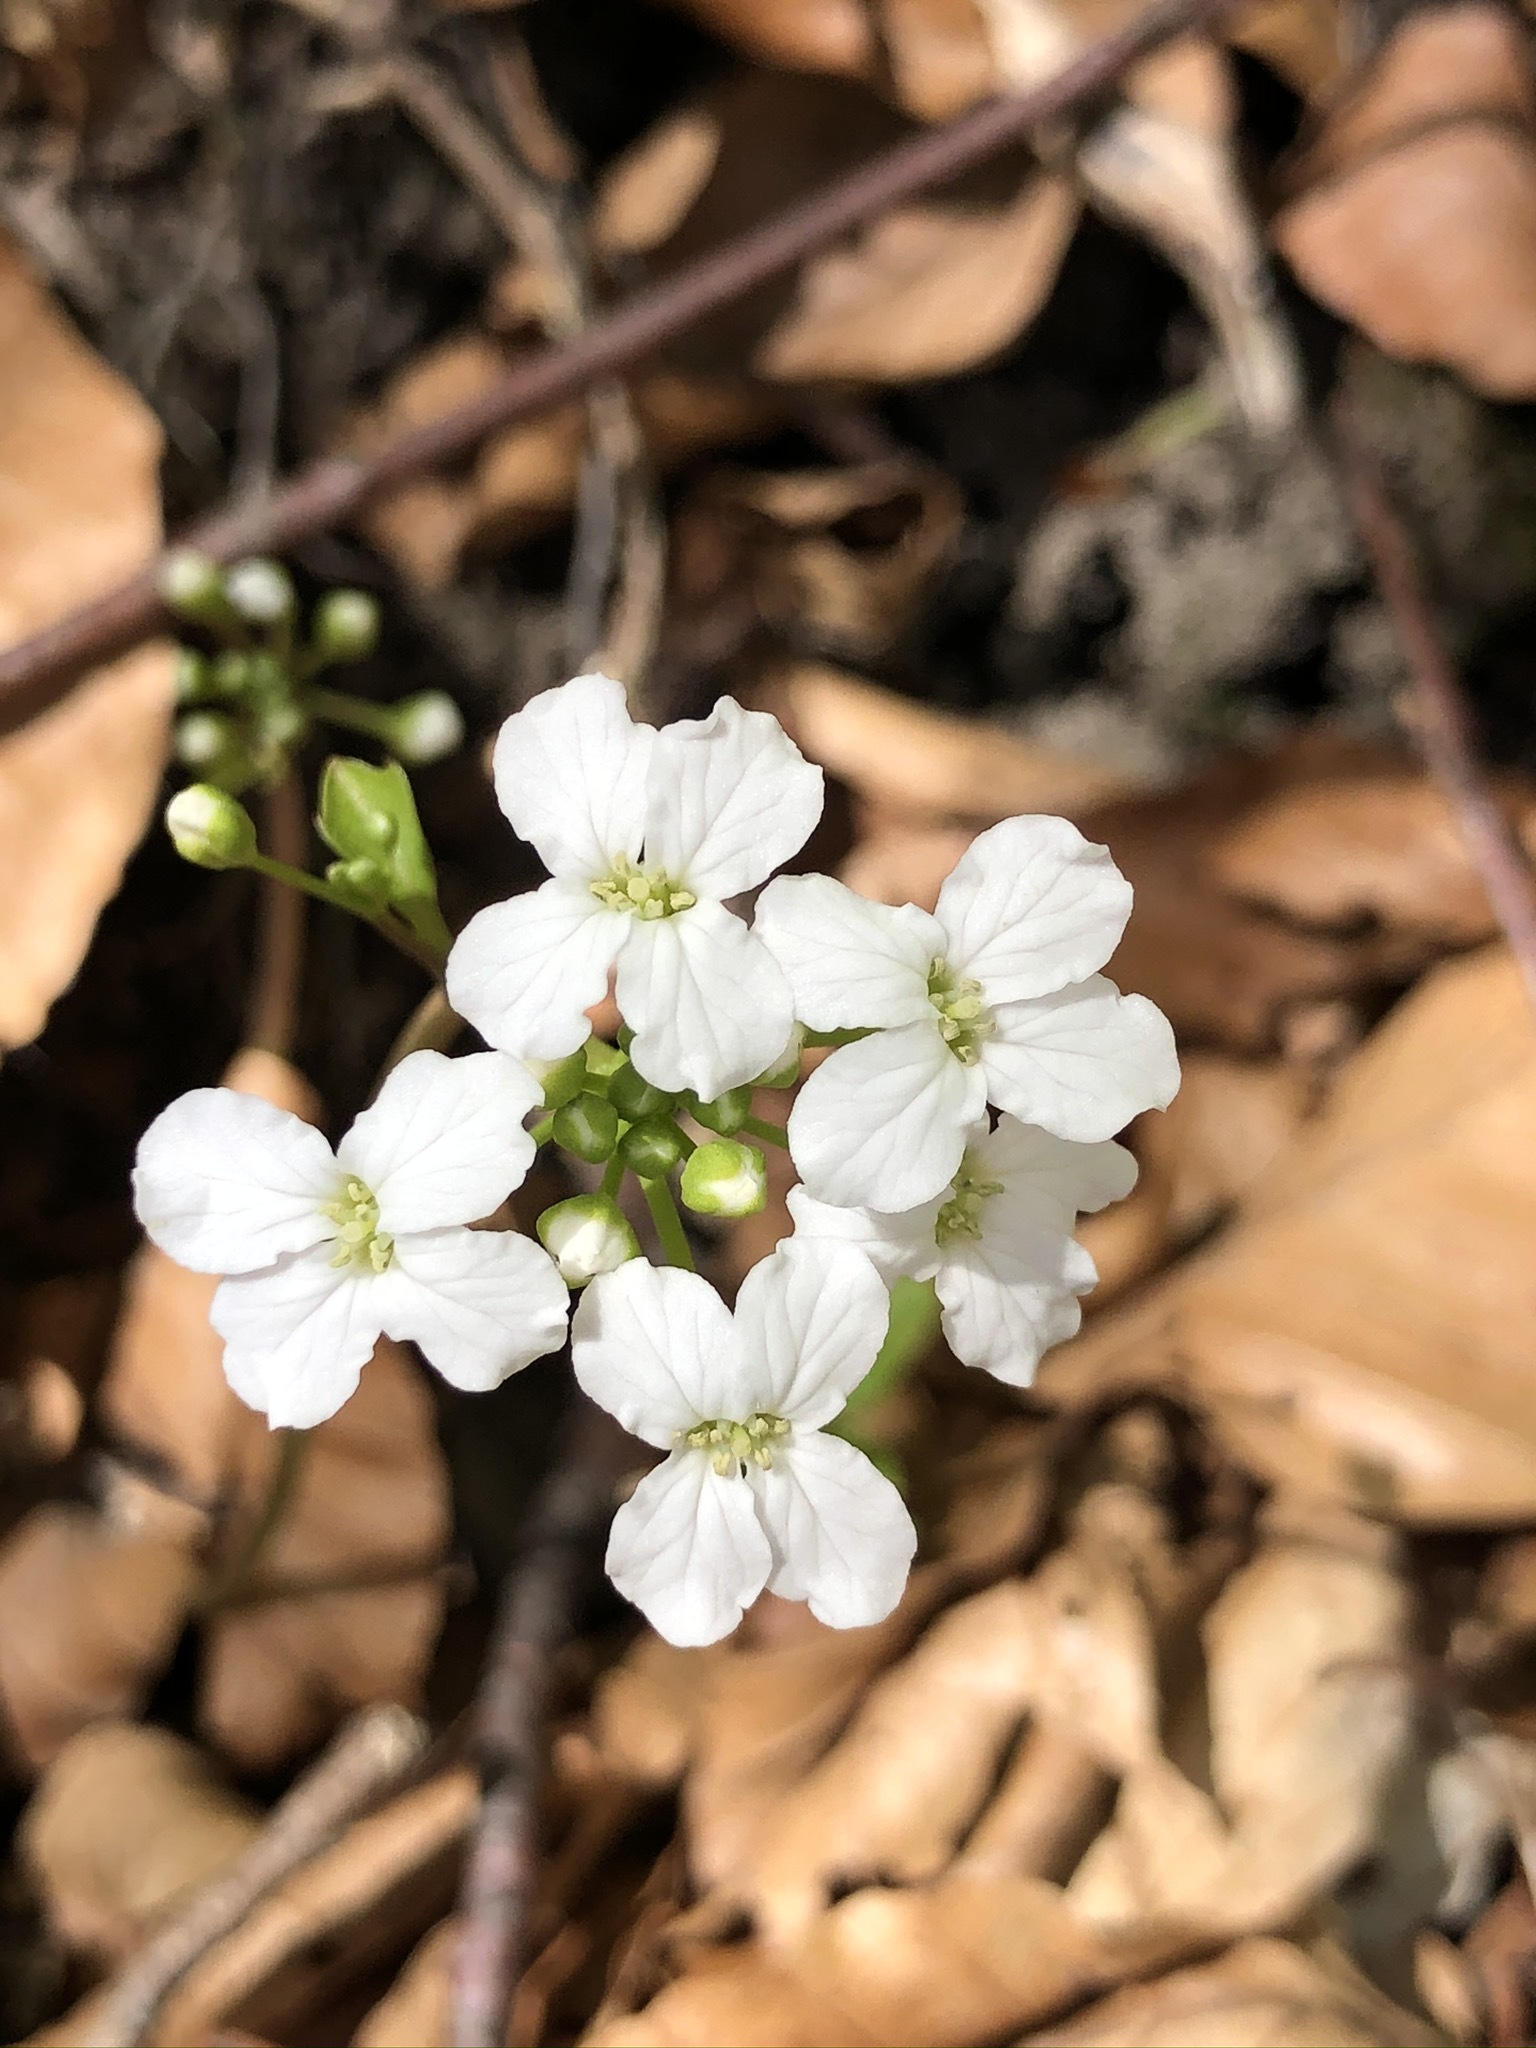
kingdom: Plantae
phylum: Tracheophyta
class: Magnoliopsida
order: Brassicales
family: Brassicaceae
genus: Cardamine
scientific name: Cardamine trifolia
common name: Trefoil cress
